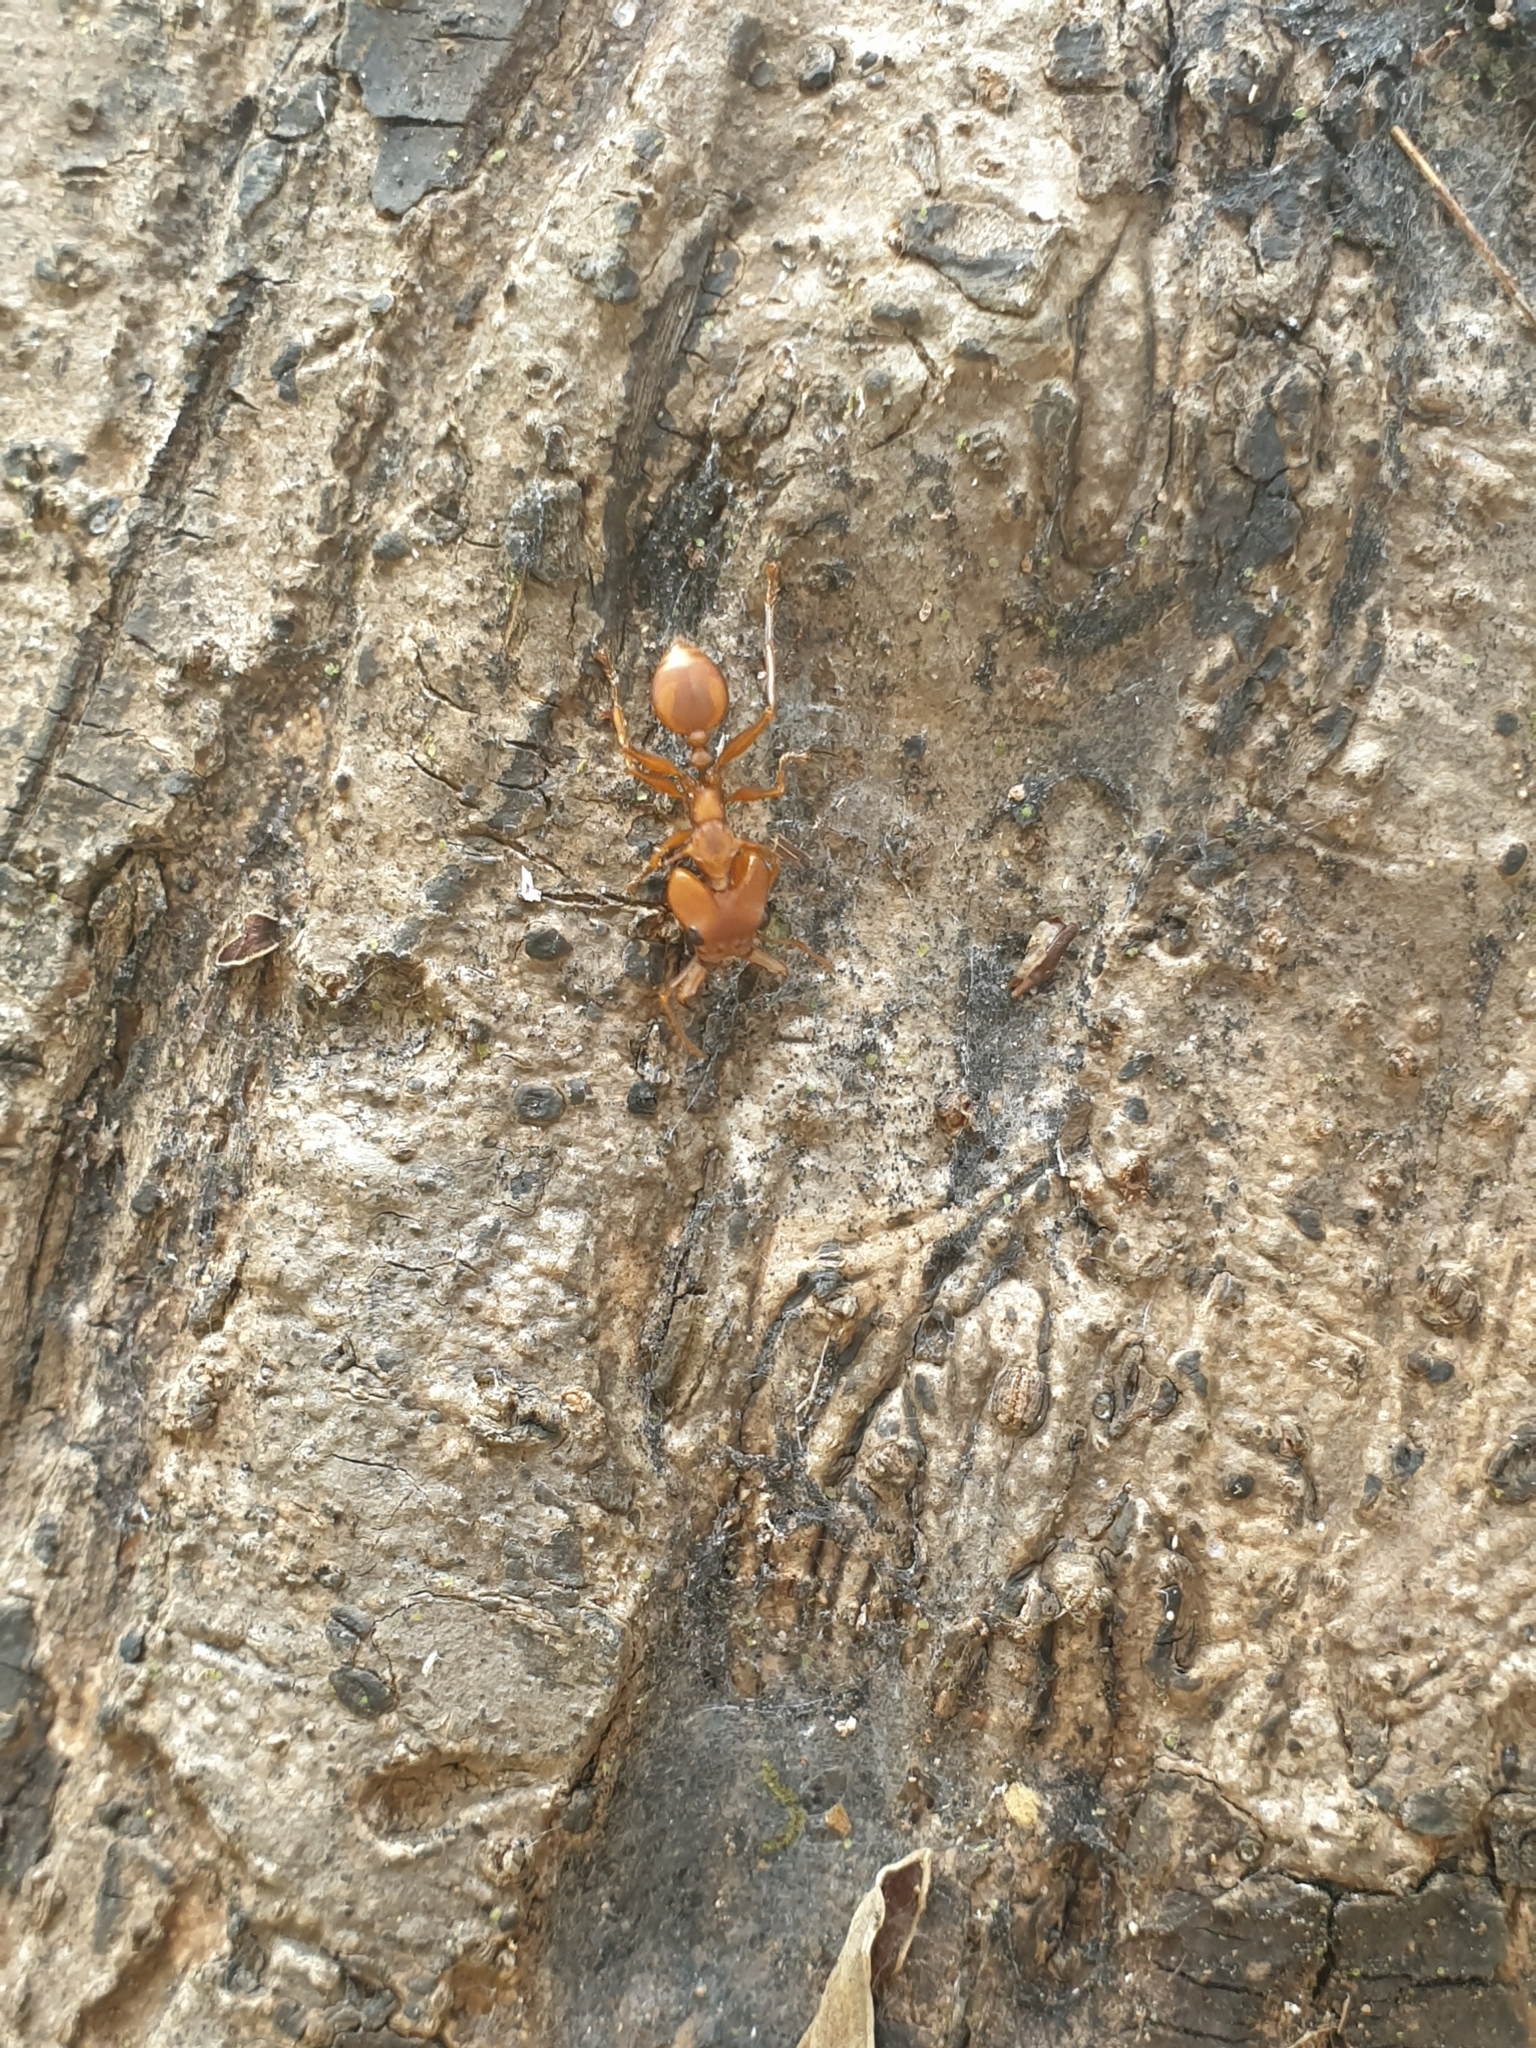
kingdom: Animalia
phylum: Arthropoda
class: Insecta
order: Hymenoptera
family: Formicidae
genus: Daceton
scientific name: Daceton armigerum
